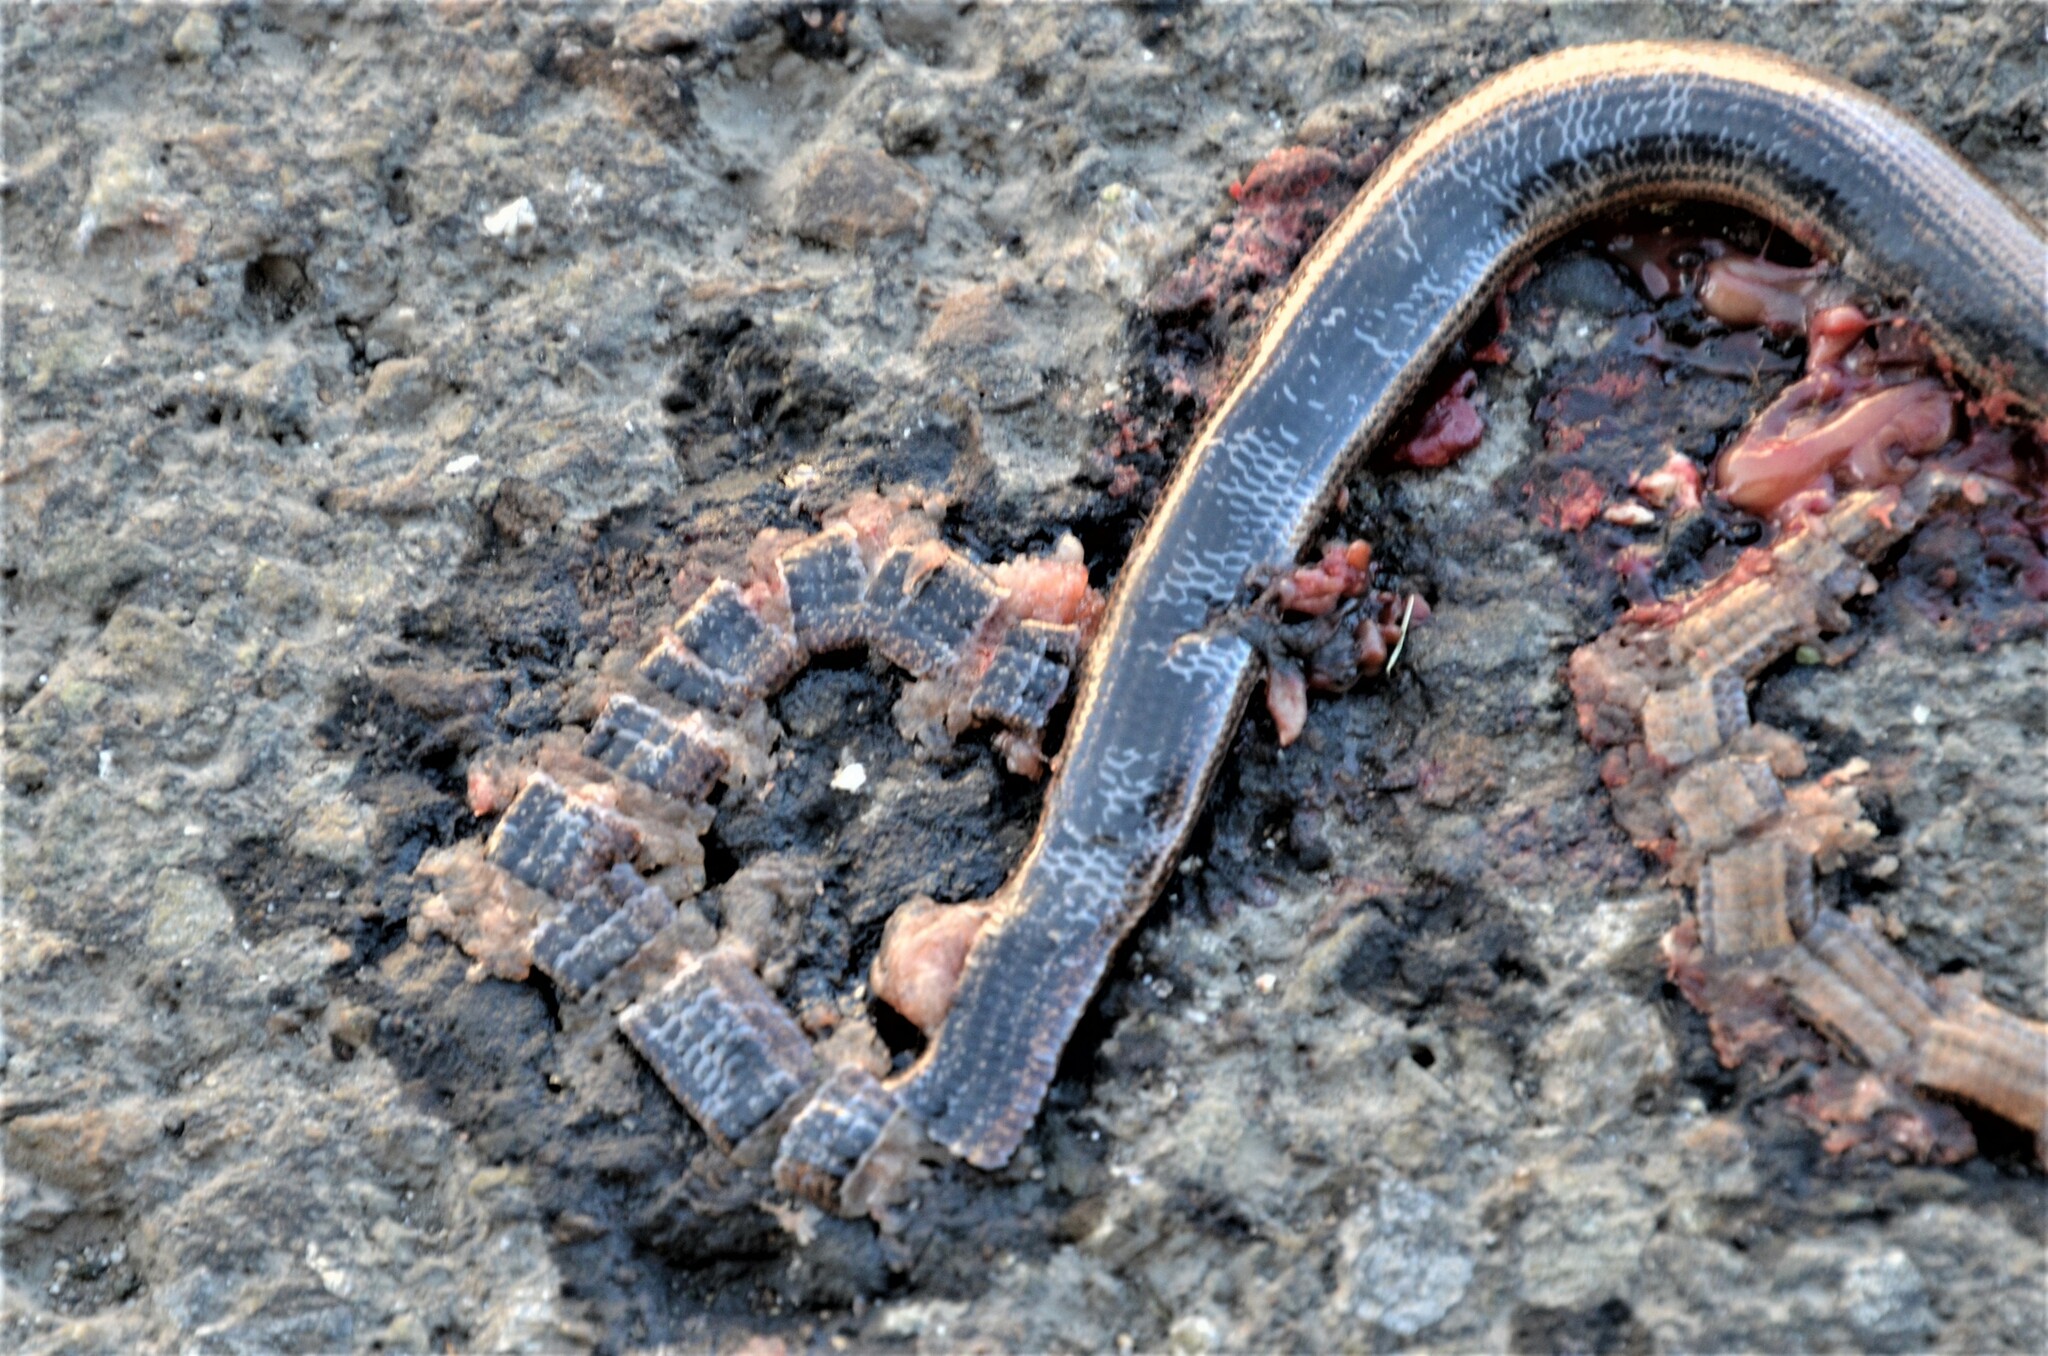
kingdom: Animalia
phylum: Chordata
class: Squamata
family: Anguidae
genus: Anguis
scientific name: Anguis fragilis
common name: Slow worm
